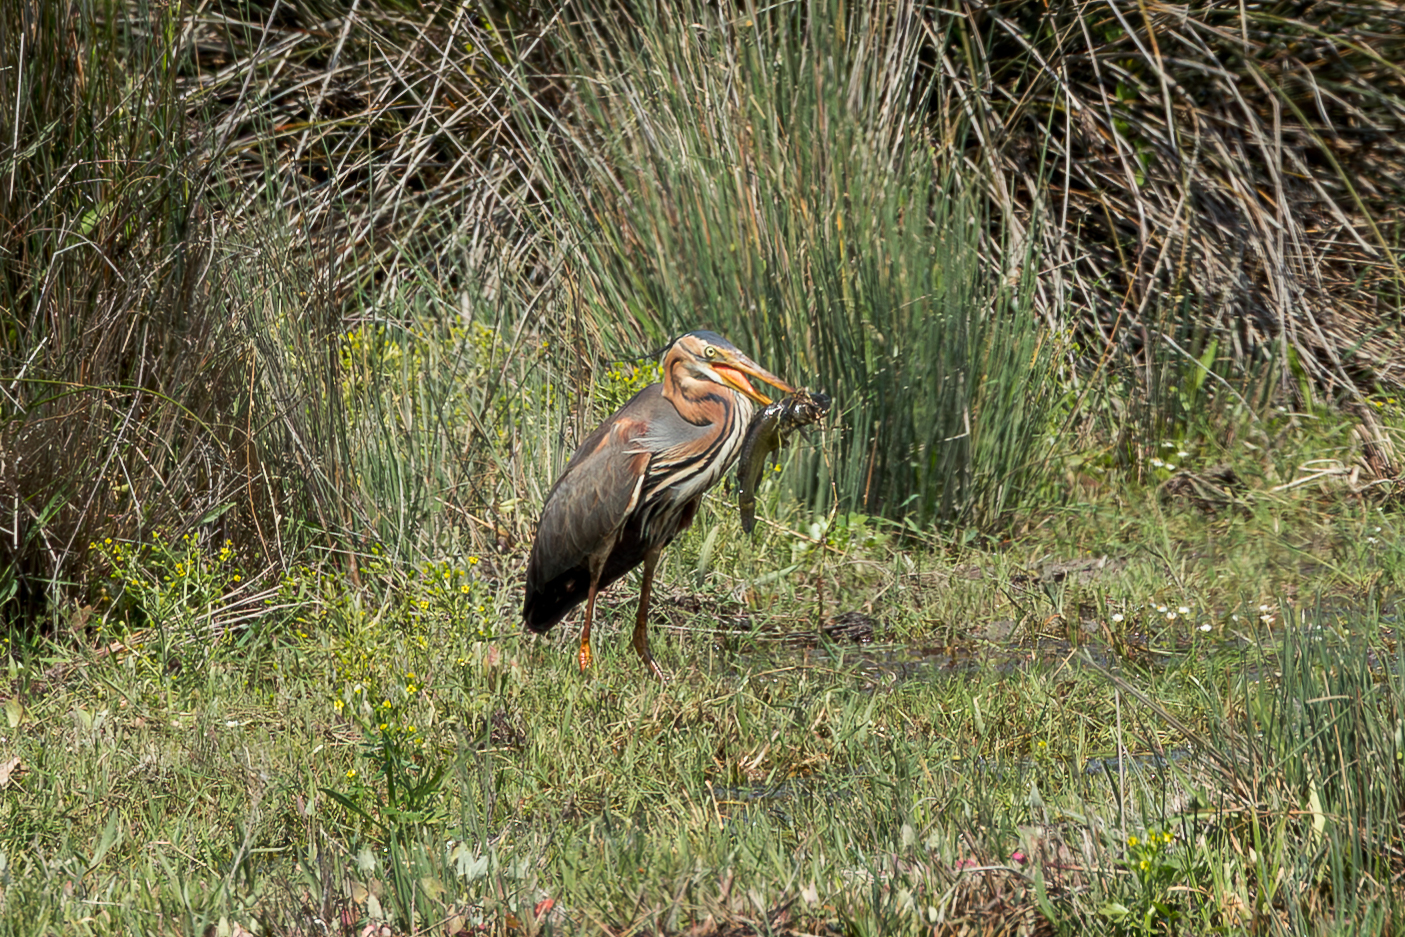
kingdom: Animalia
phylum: Chordata
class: Aves
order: Pelecaniformes
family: Ardeidae
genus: Ardea
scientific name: Ardea purpurea
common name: Purple heron
